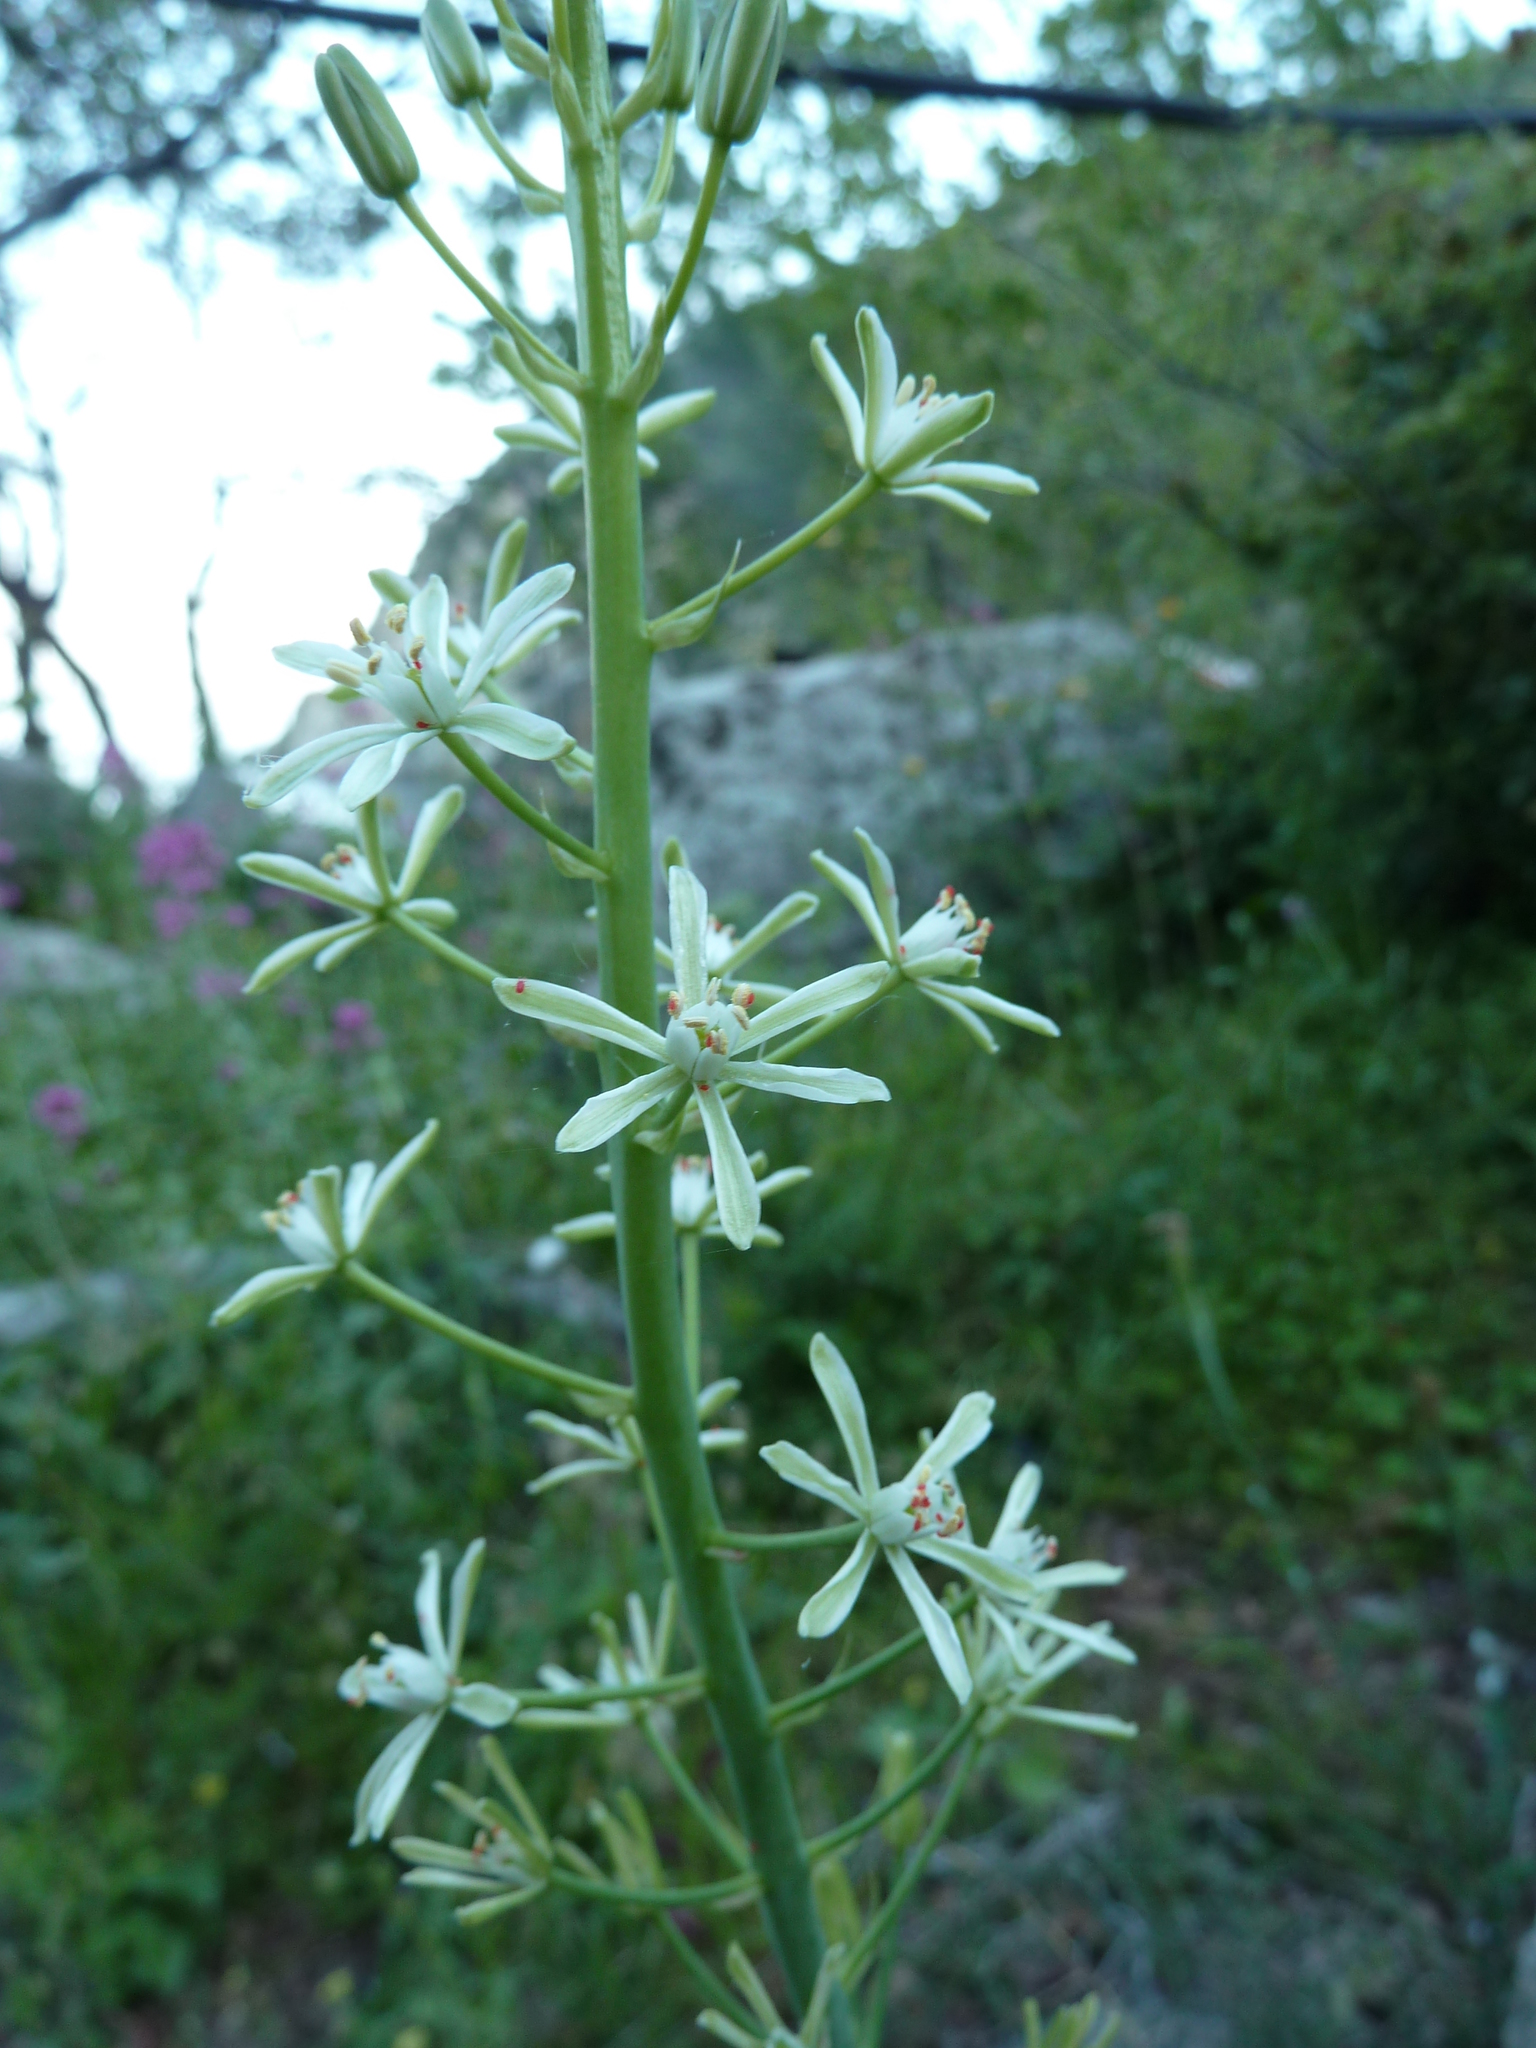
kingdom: Plantae
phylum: Tracheophyta
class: Liliopsida
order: Asparagales
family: Asparagaceae
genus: Ornithogalum
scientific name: Ornithogalum pyrenaicum
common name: Spiked star-of-bethlehem
